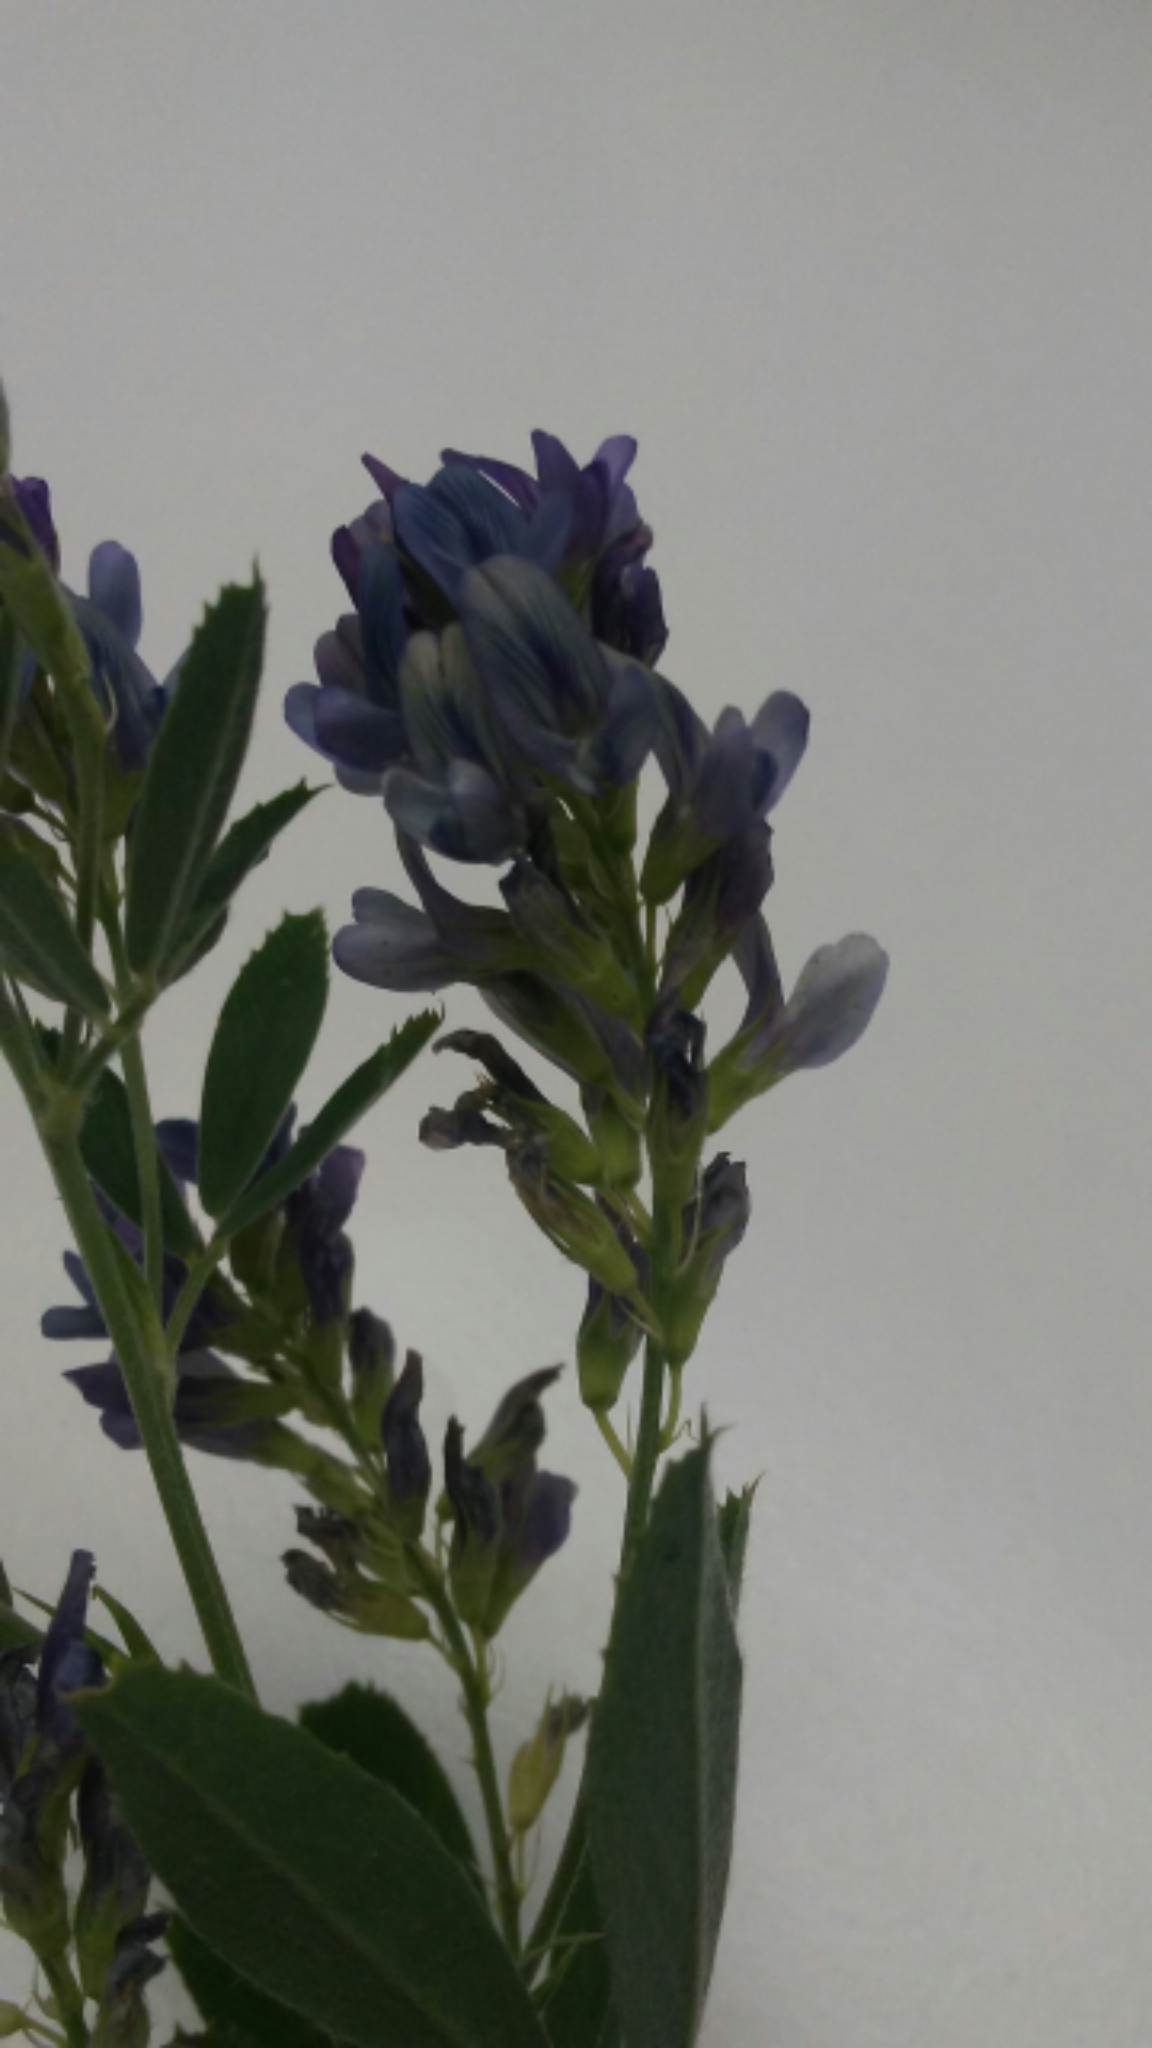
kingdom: Plantae
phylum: Tracheophyta
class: Magnoliopsida
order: Fabales
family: Fabaceae
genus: Medicago
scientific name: Medicago sativa
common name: Alfalfa
